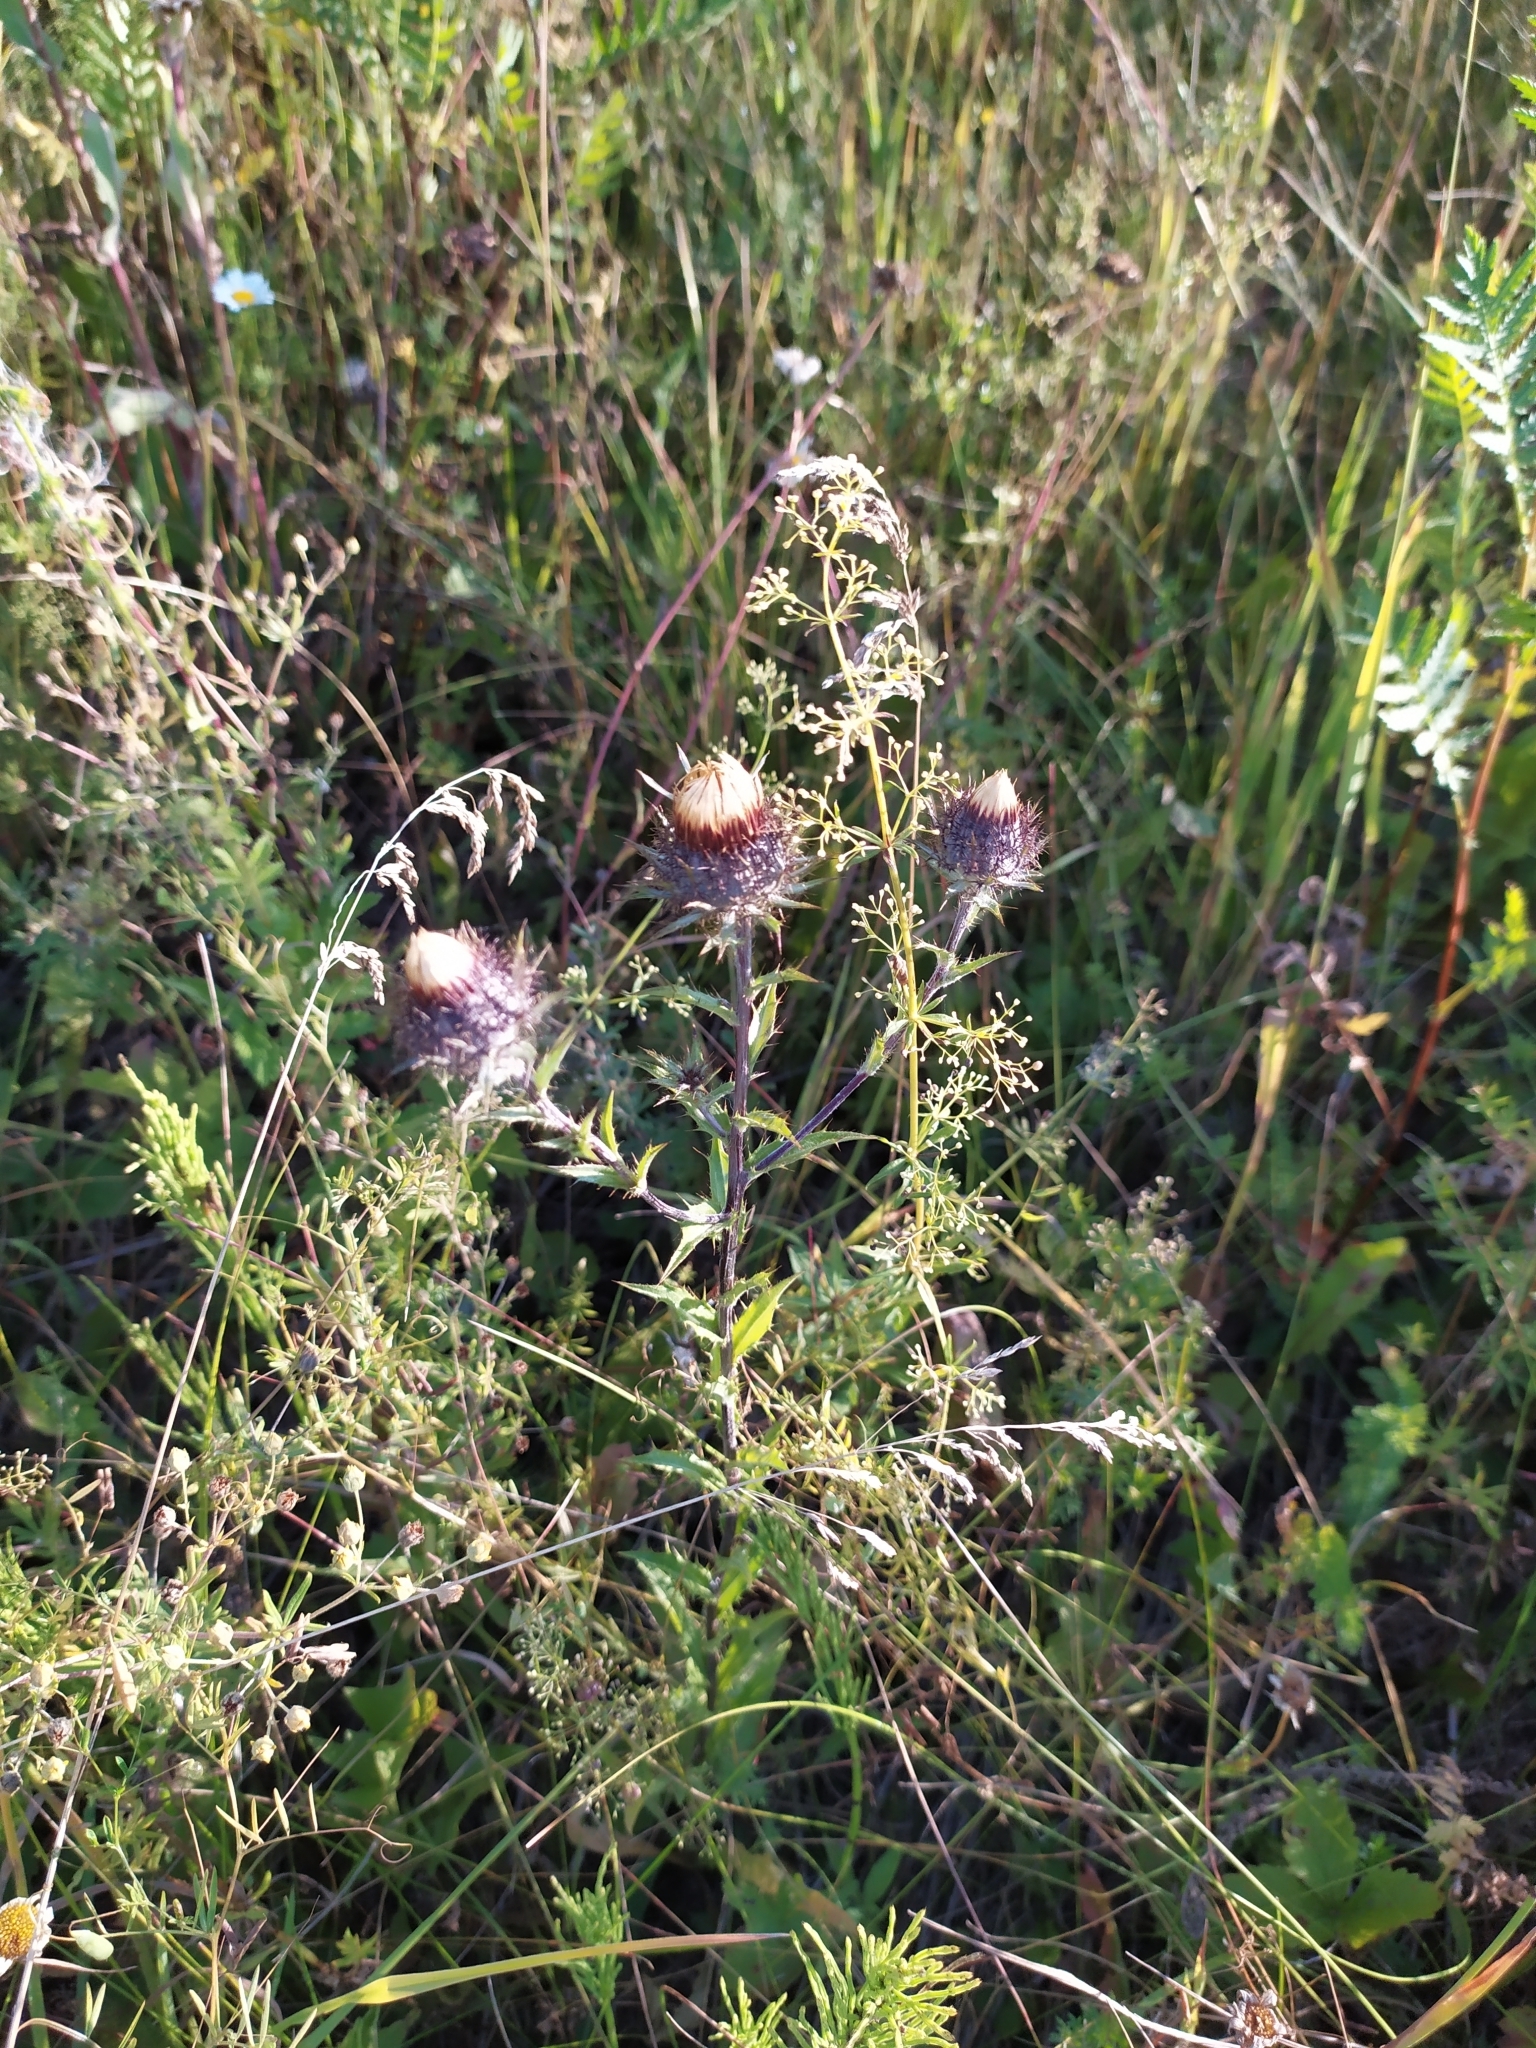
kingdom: Plantae
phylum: Tracheophyta
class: Magnoliopsida
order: Asterales
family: Asteraceae
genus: Carlina
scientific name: Carlina biebersteinii
